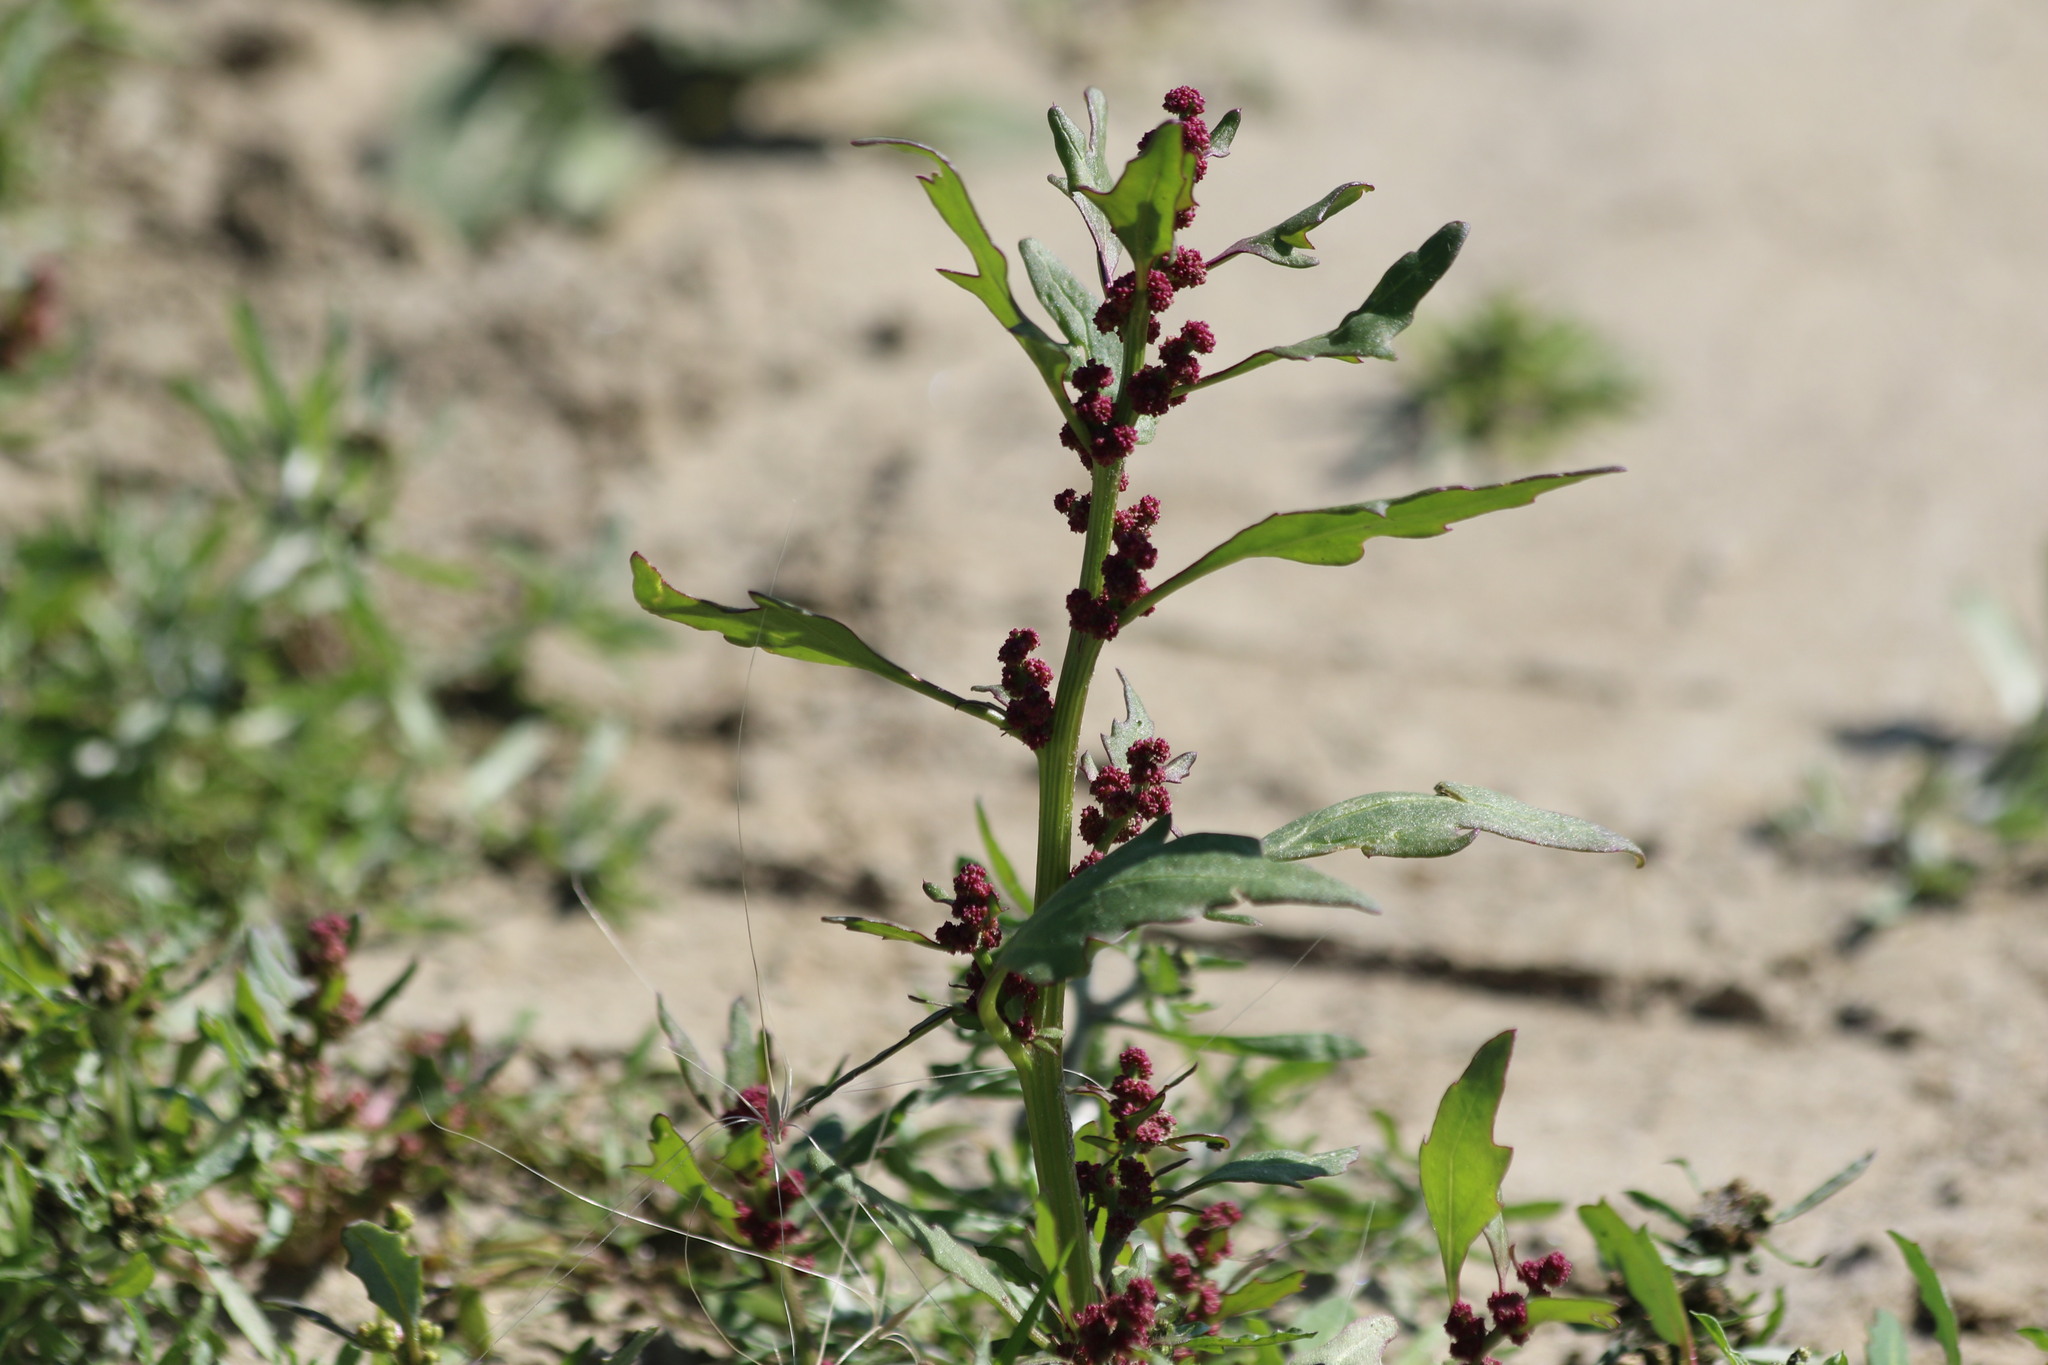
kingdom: Plantae
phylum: Tracheophyta
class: Magnoliopsida
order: Caryophyllales
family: Amaranthaceae
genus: Oxybasis
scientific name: Oxybasis rubra
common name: Red goosefoot
